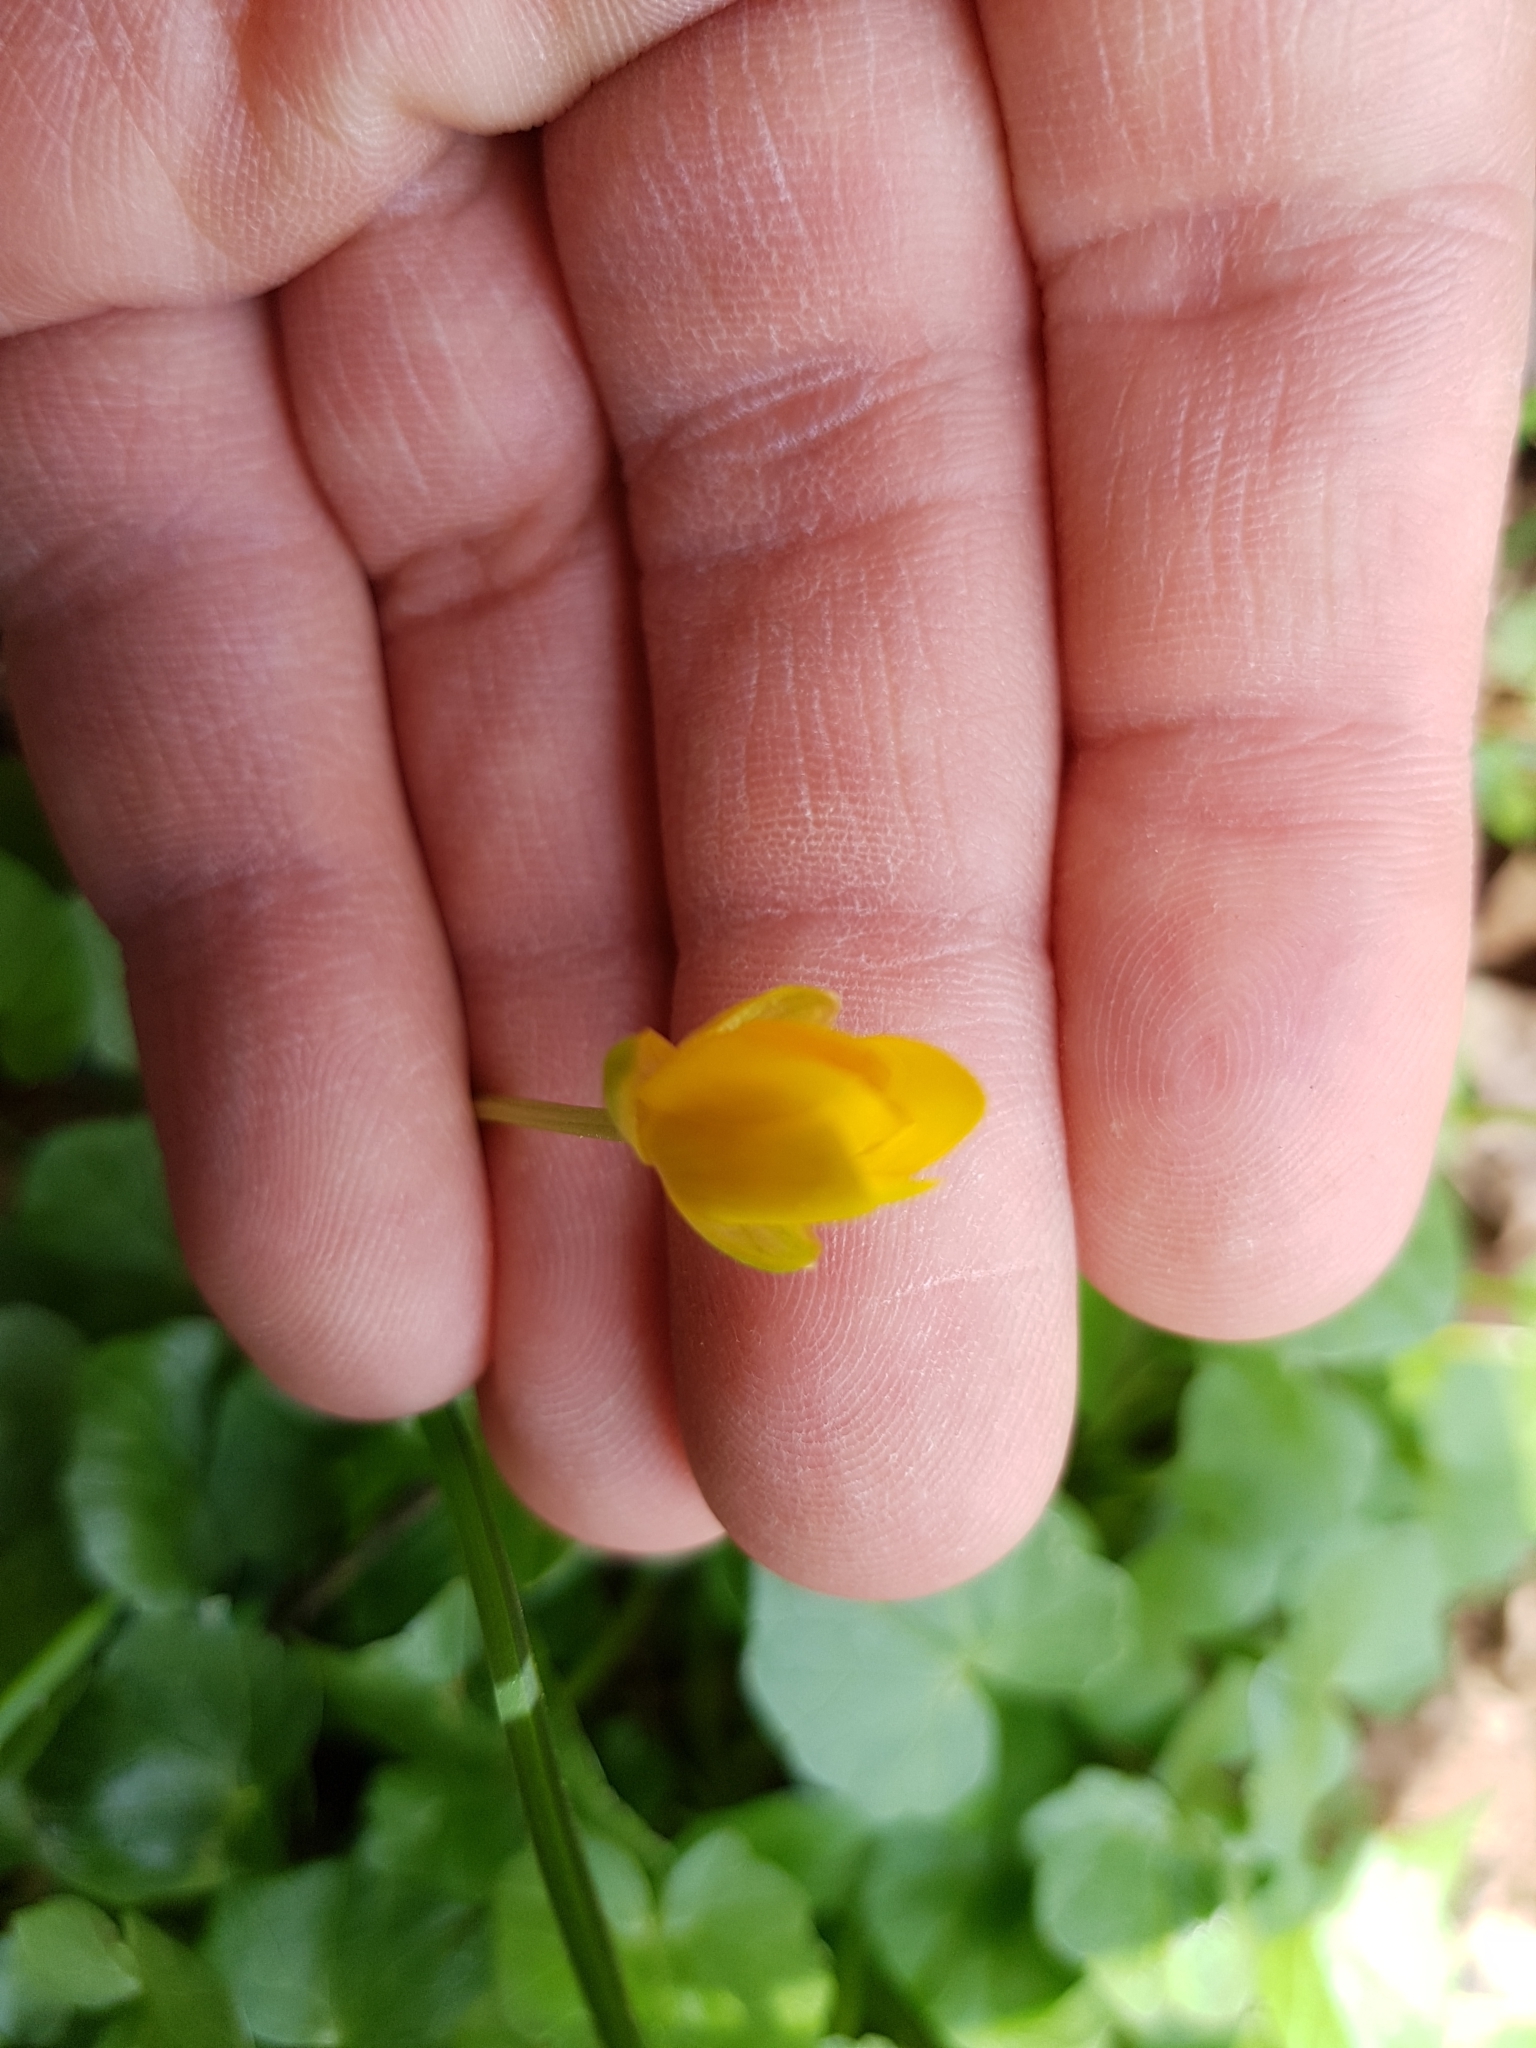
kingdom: Plantae
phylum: Tracheophyta
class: Magnoliopsida
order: Ranunculales
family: Ranunculaceae
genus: Ficaria
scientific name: Ficaria verna
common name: Lesser celandine
